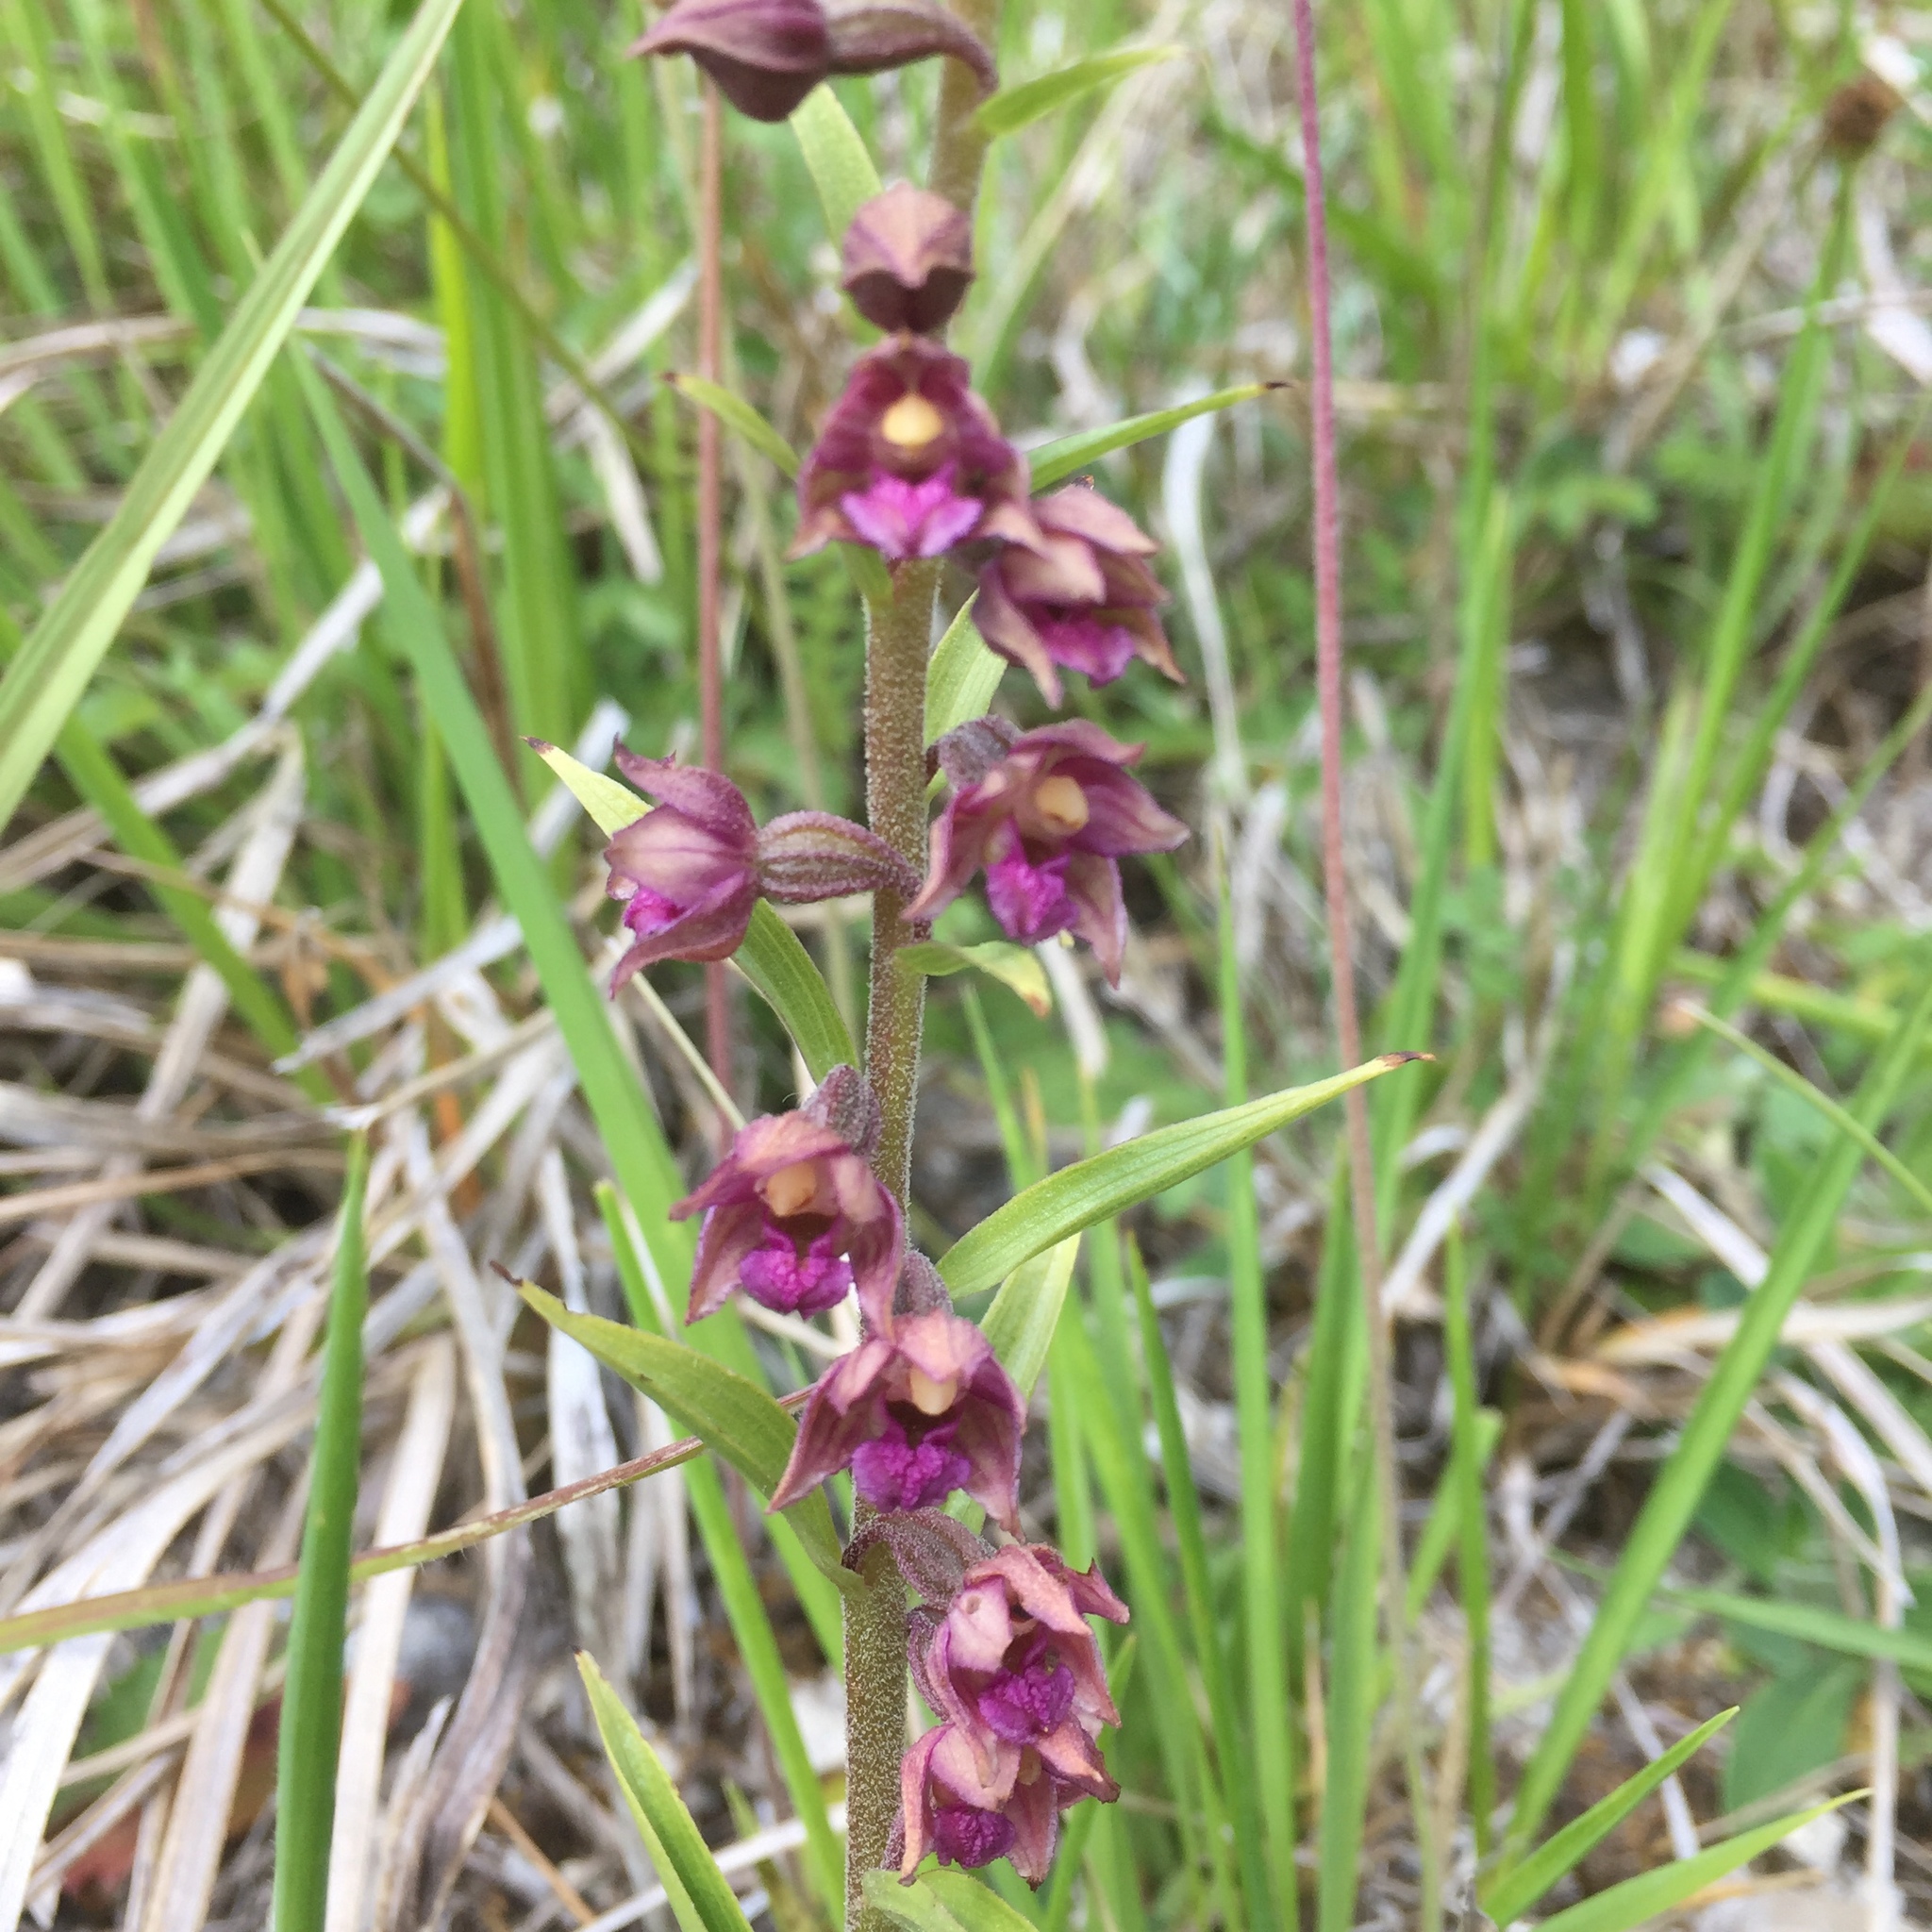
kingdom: Plantae
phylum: Tracheophyta
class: Liliopsida
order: Asparagales
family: Orchidaceae
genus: Epipactis
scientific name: Epipactis atrorubens
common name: Dark-red helleborine
